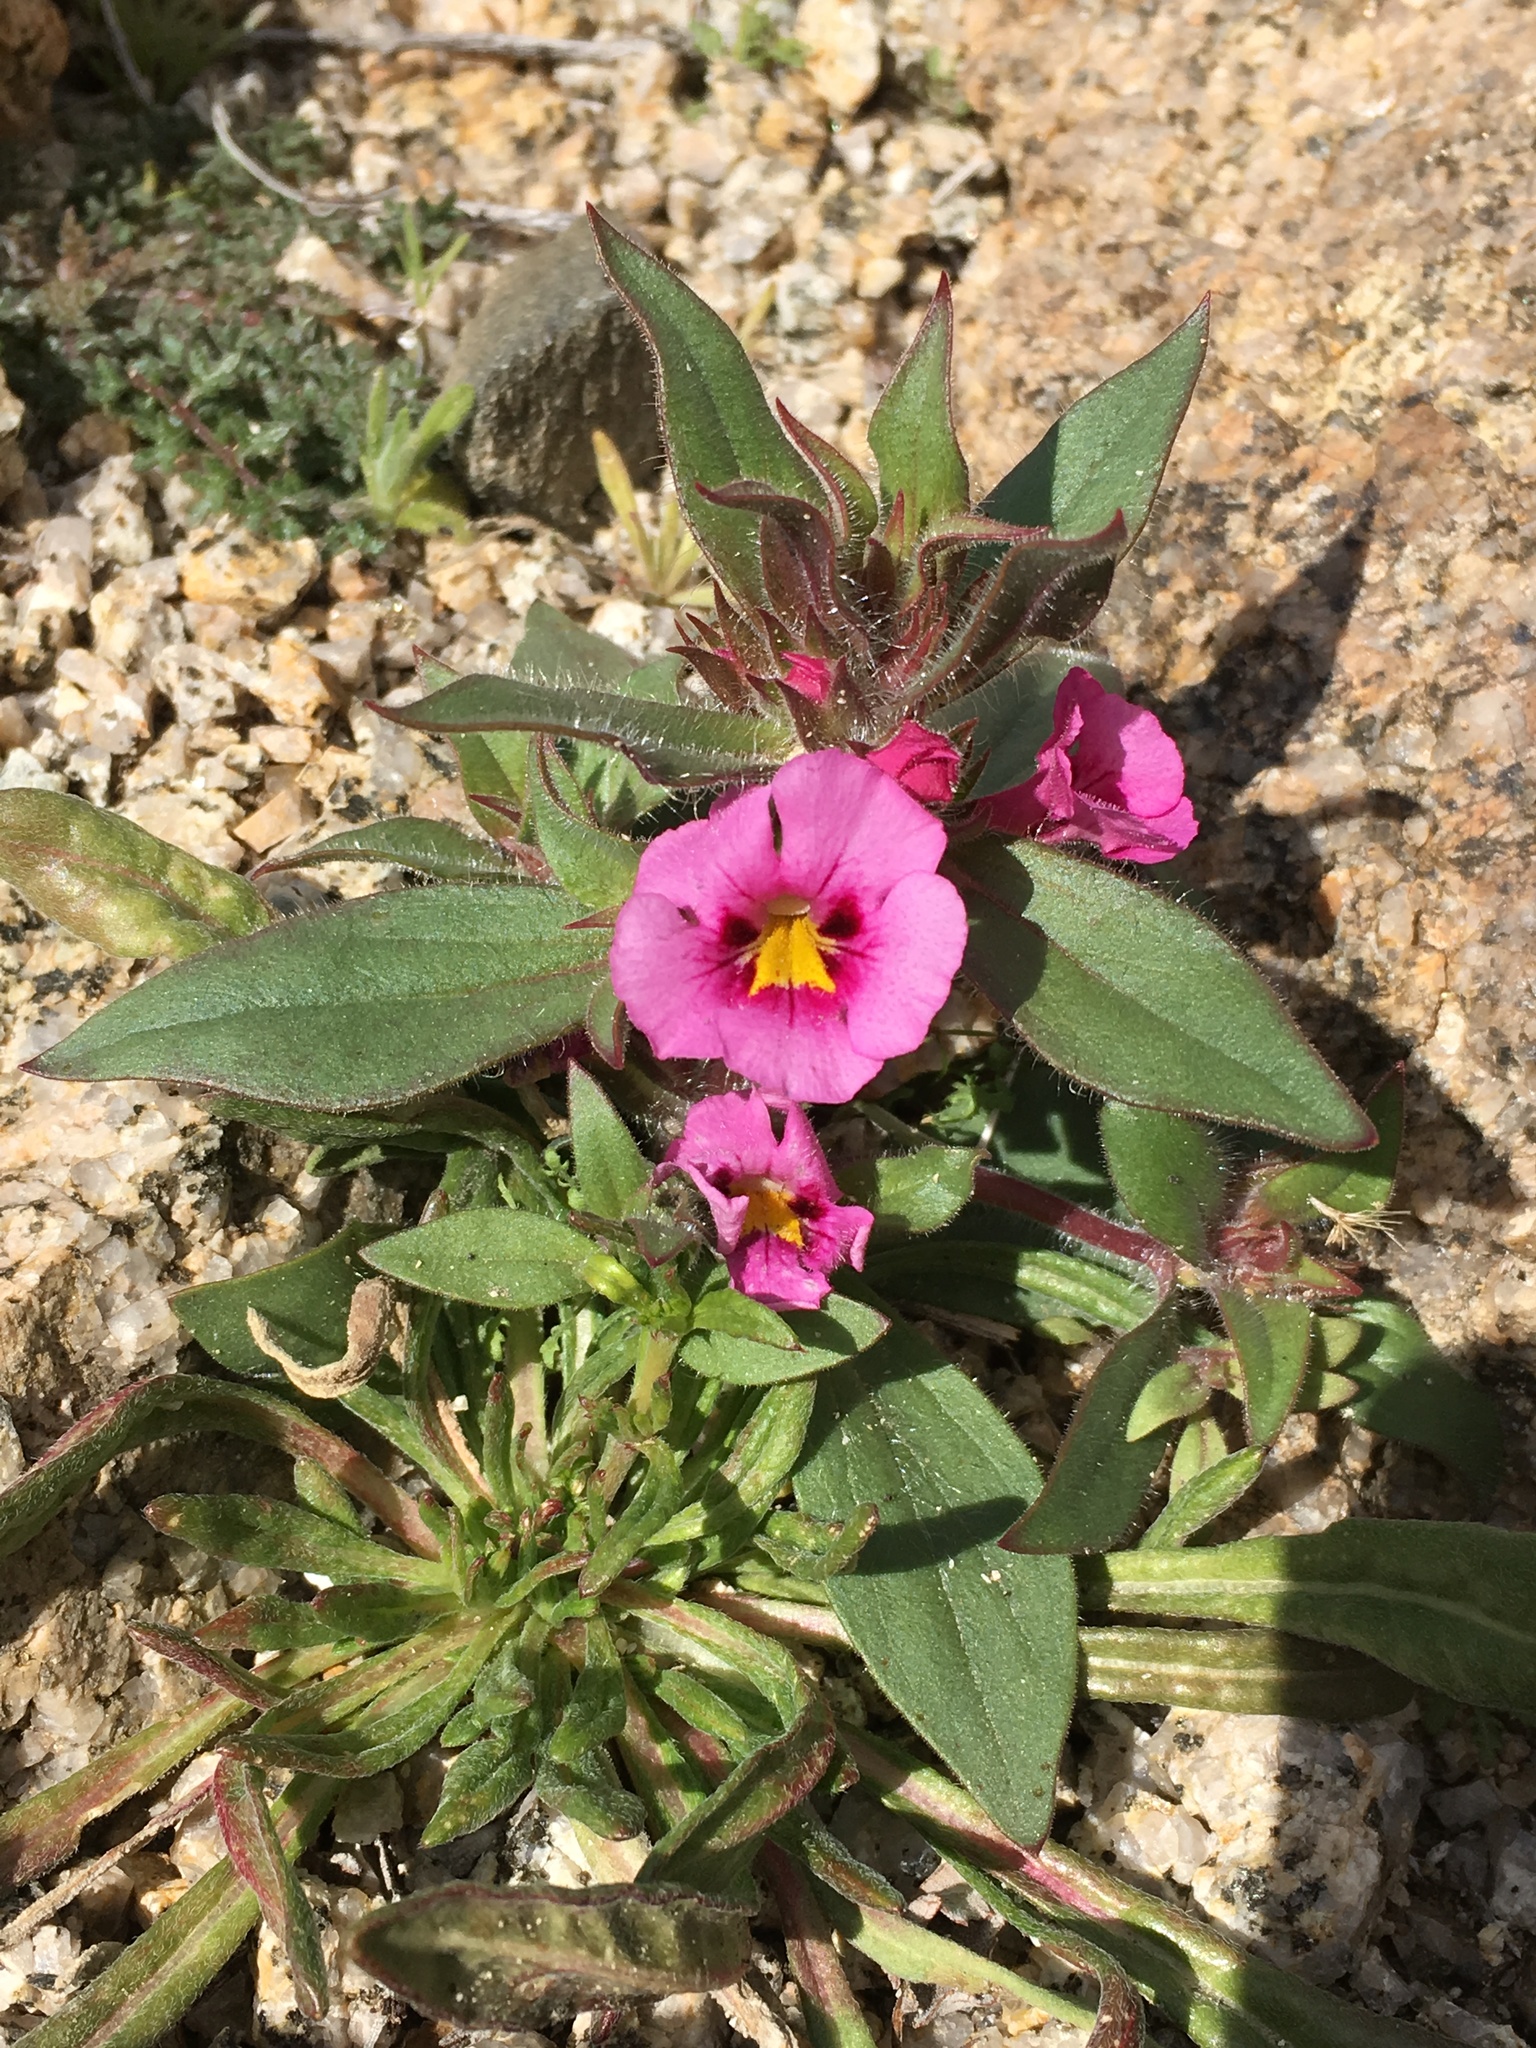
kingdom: Plantae
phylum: Tracheophyta
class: Magnoliopsida
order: Lamiales
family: Phrymaceae
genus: Diplacus
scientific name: Diplacus bigelovii
